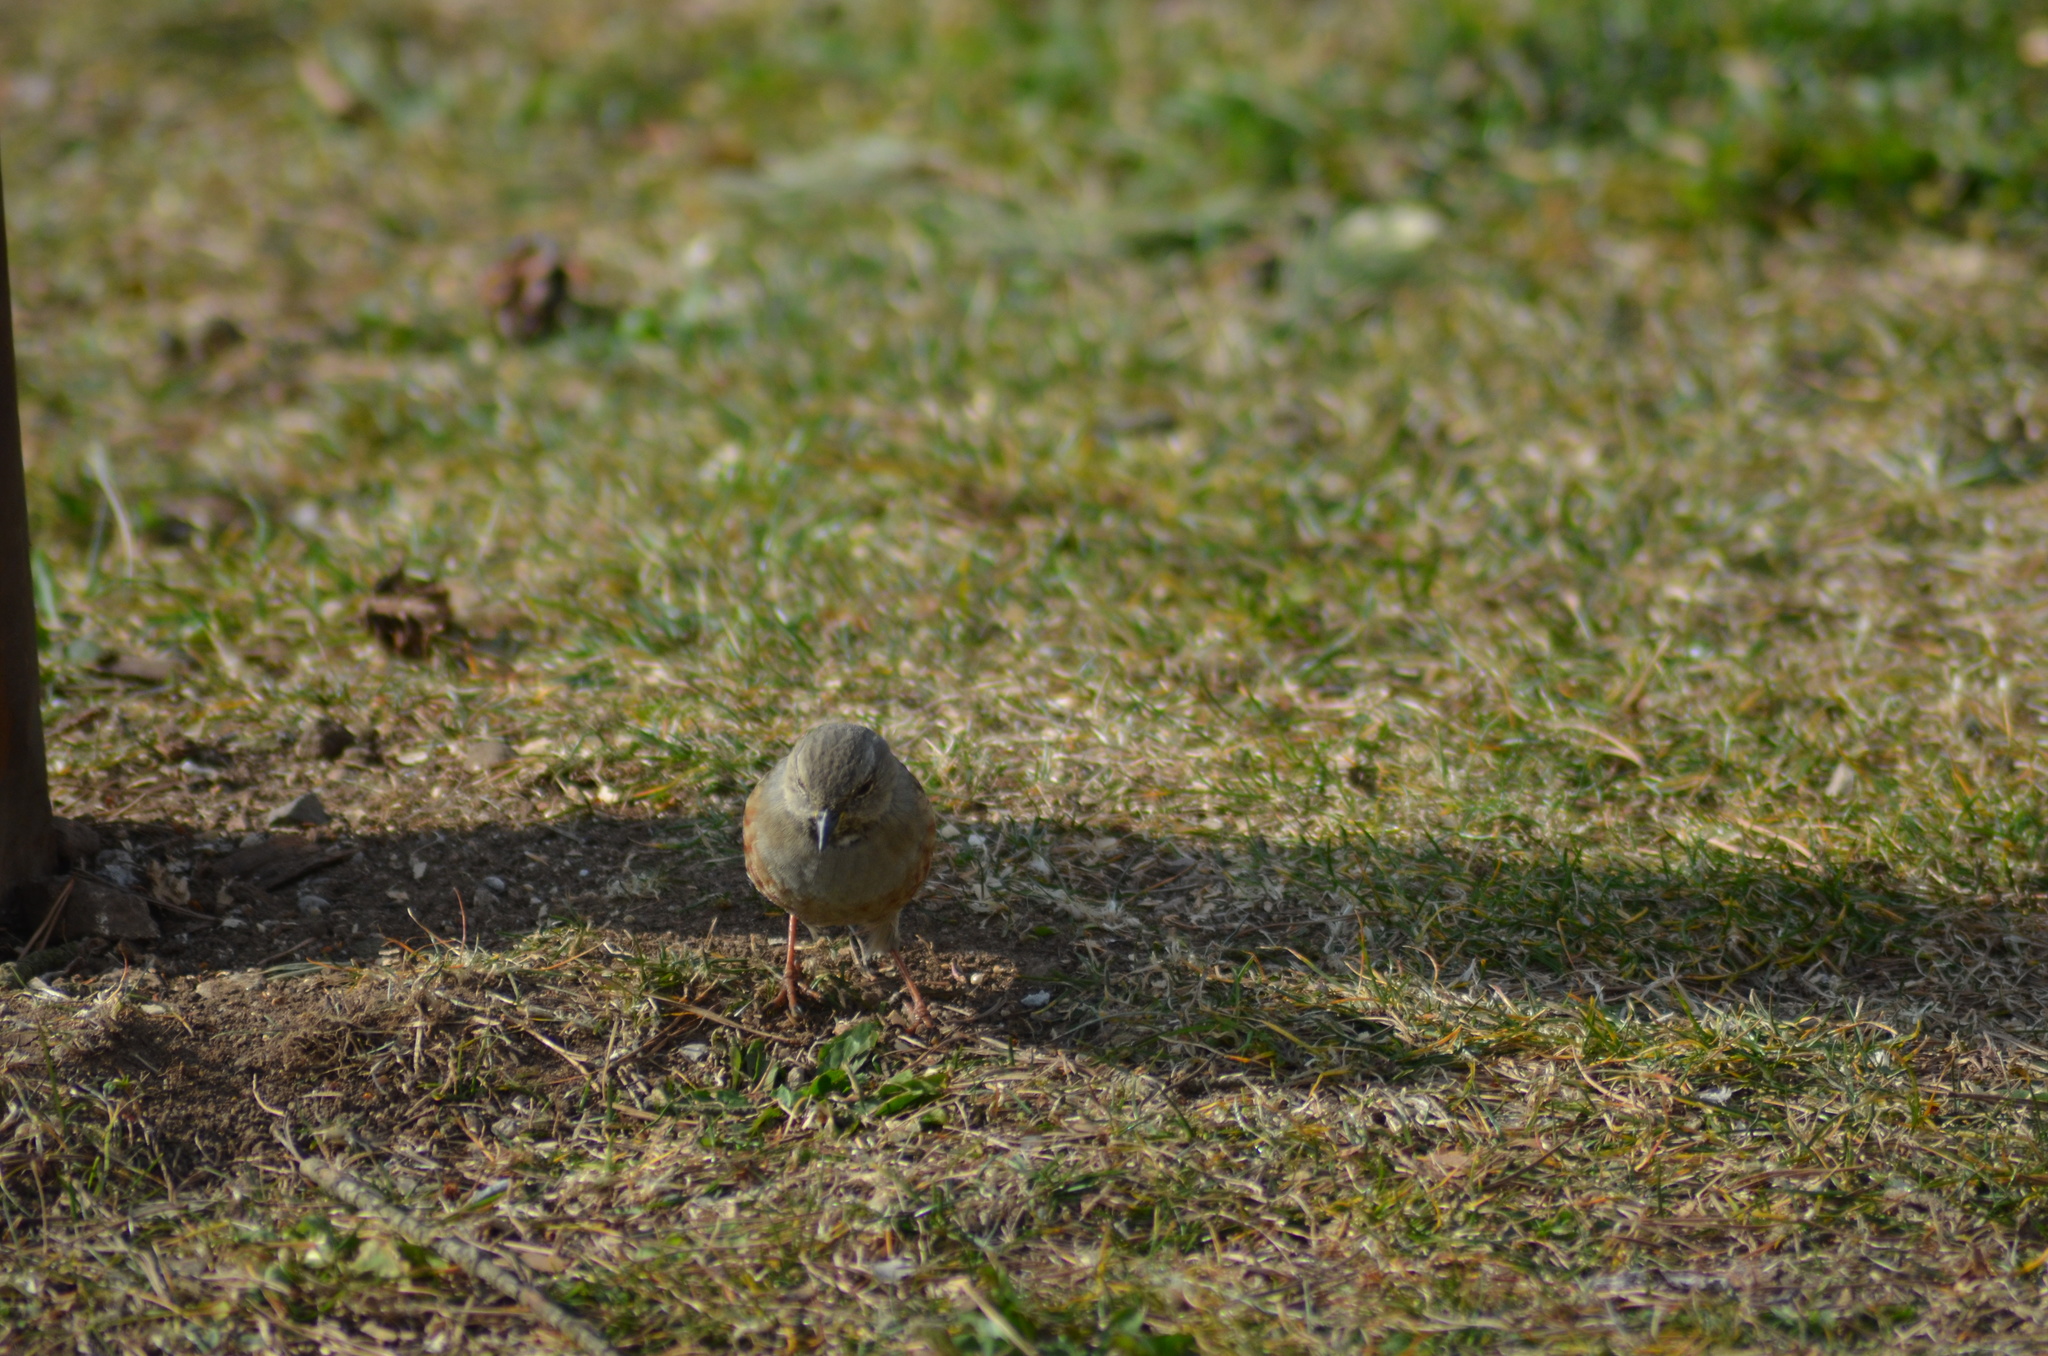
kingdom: Animalia
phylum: Chordata
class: Aves
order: Passeriformes
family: Prunellidae
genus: Prunella
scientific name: Prunella collaris
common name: Alpine accentor
